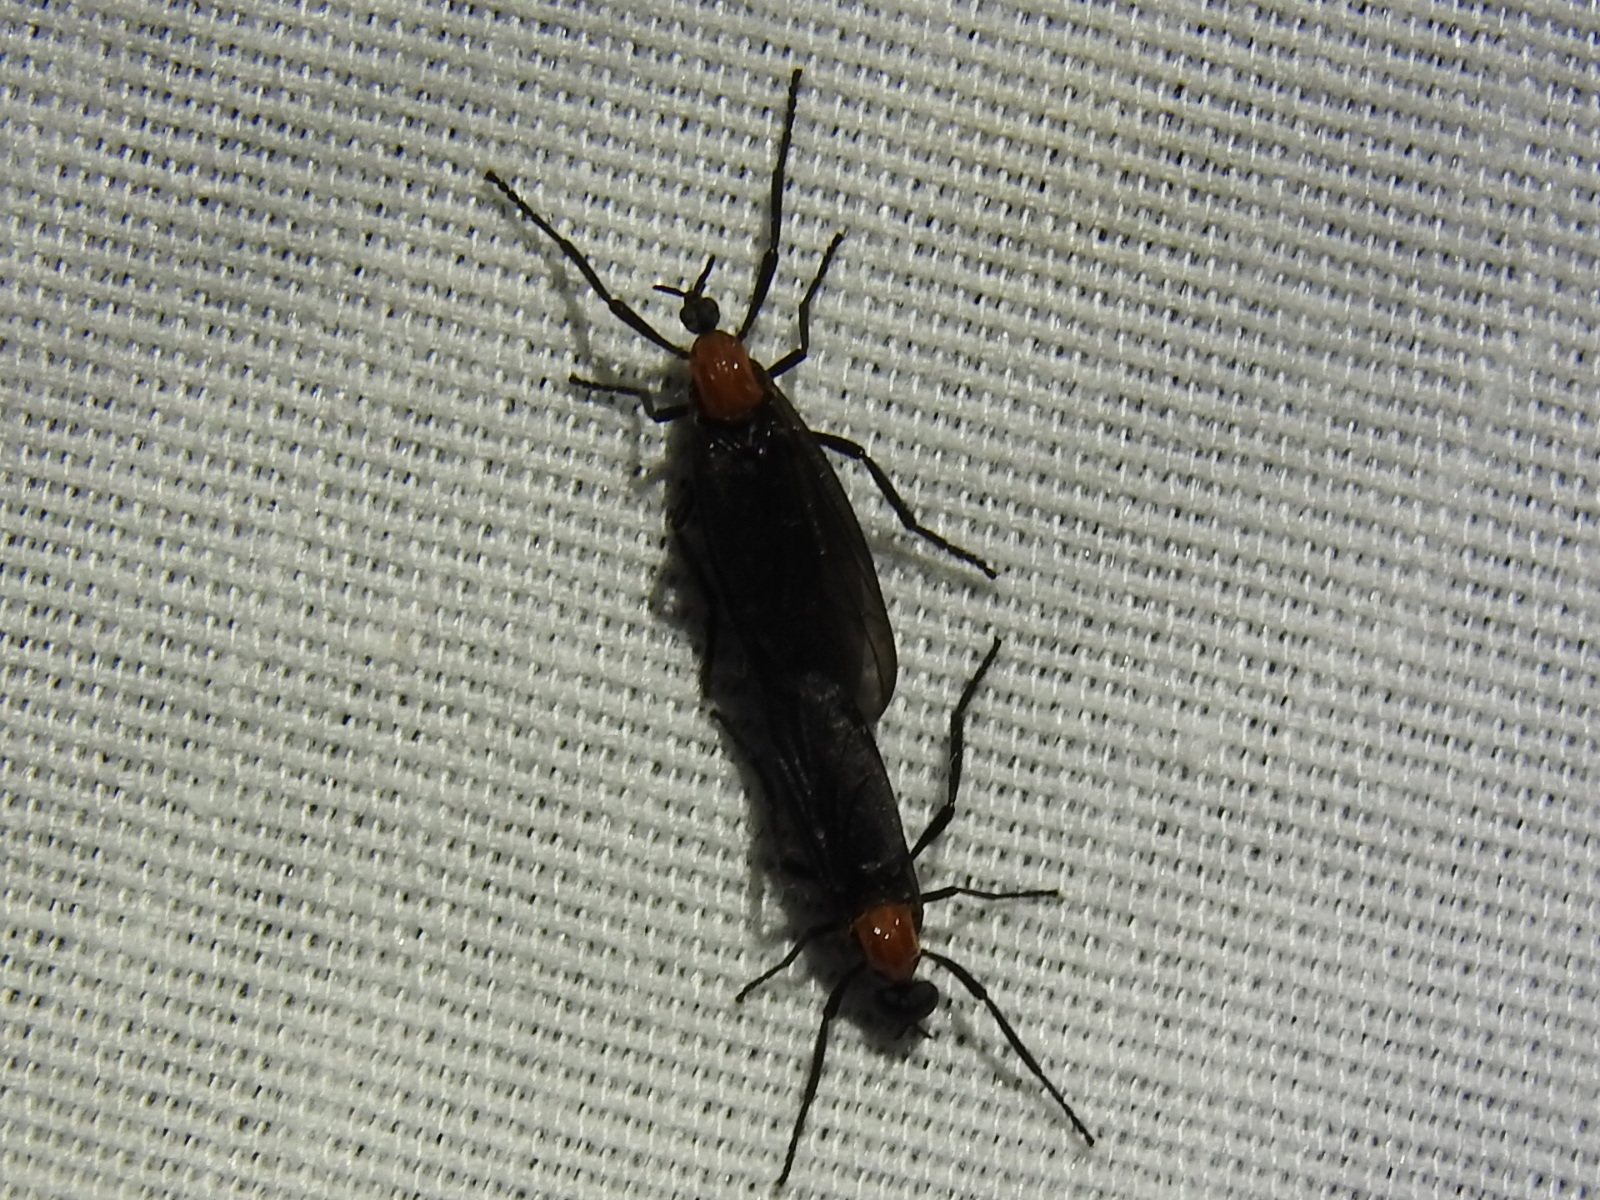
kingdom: Animalia
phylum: Arthropoda
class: Insecta
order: Diptera
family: Bibionidae
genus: Plecia
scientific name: Plecia nearctica
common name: March fly
